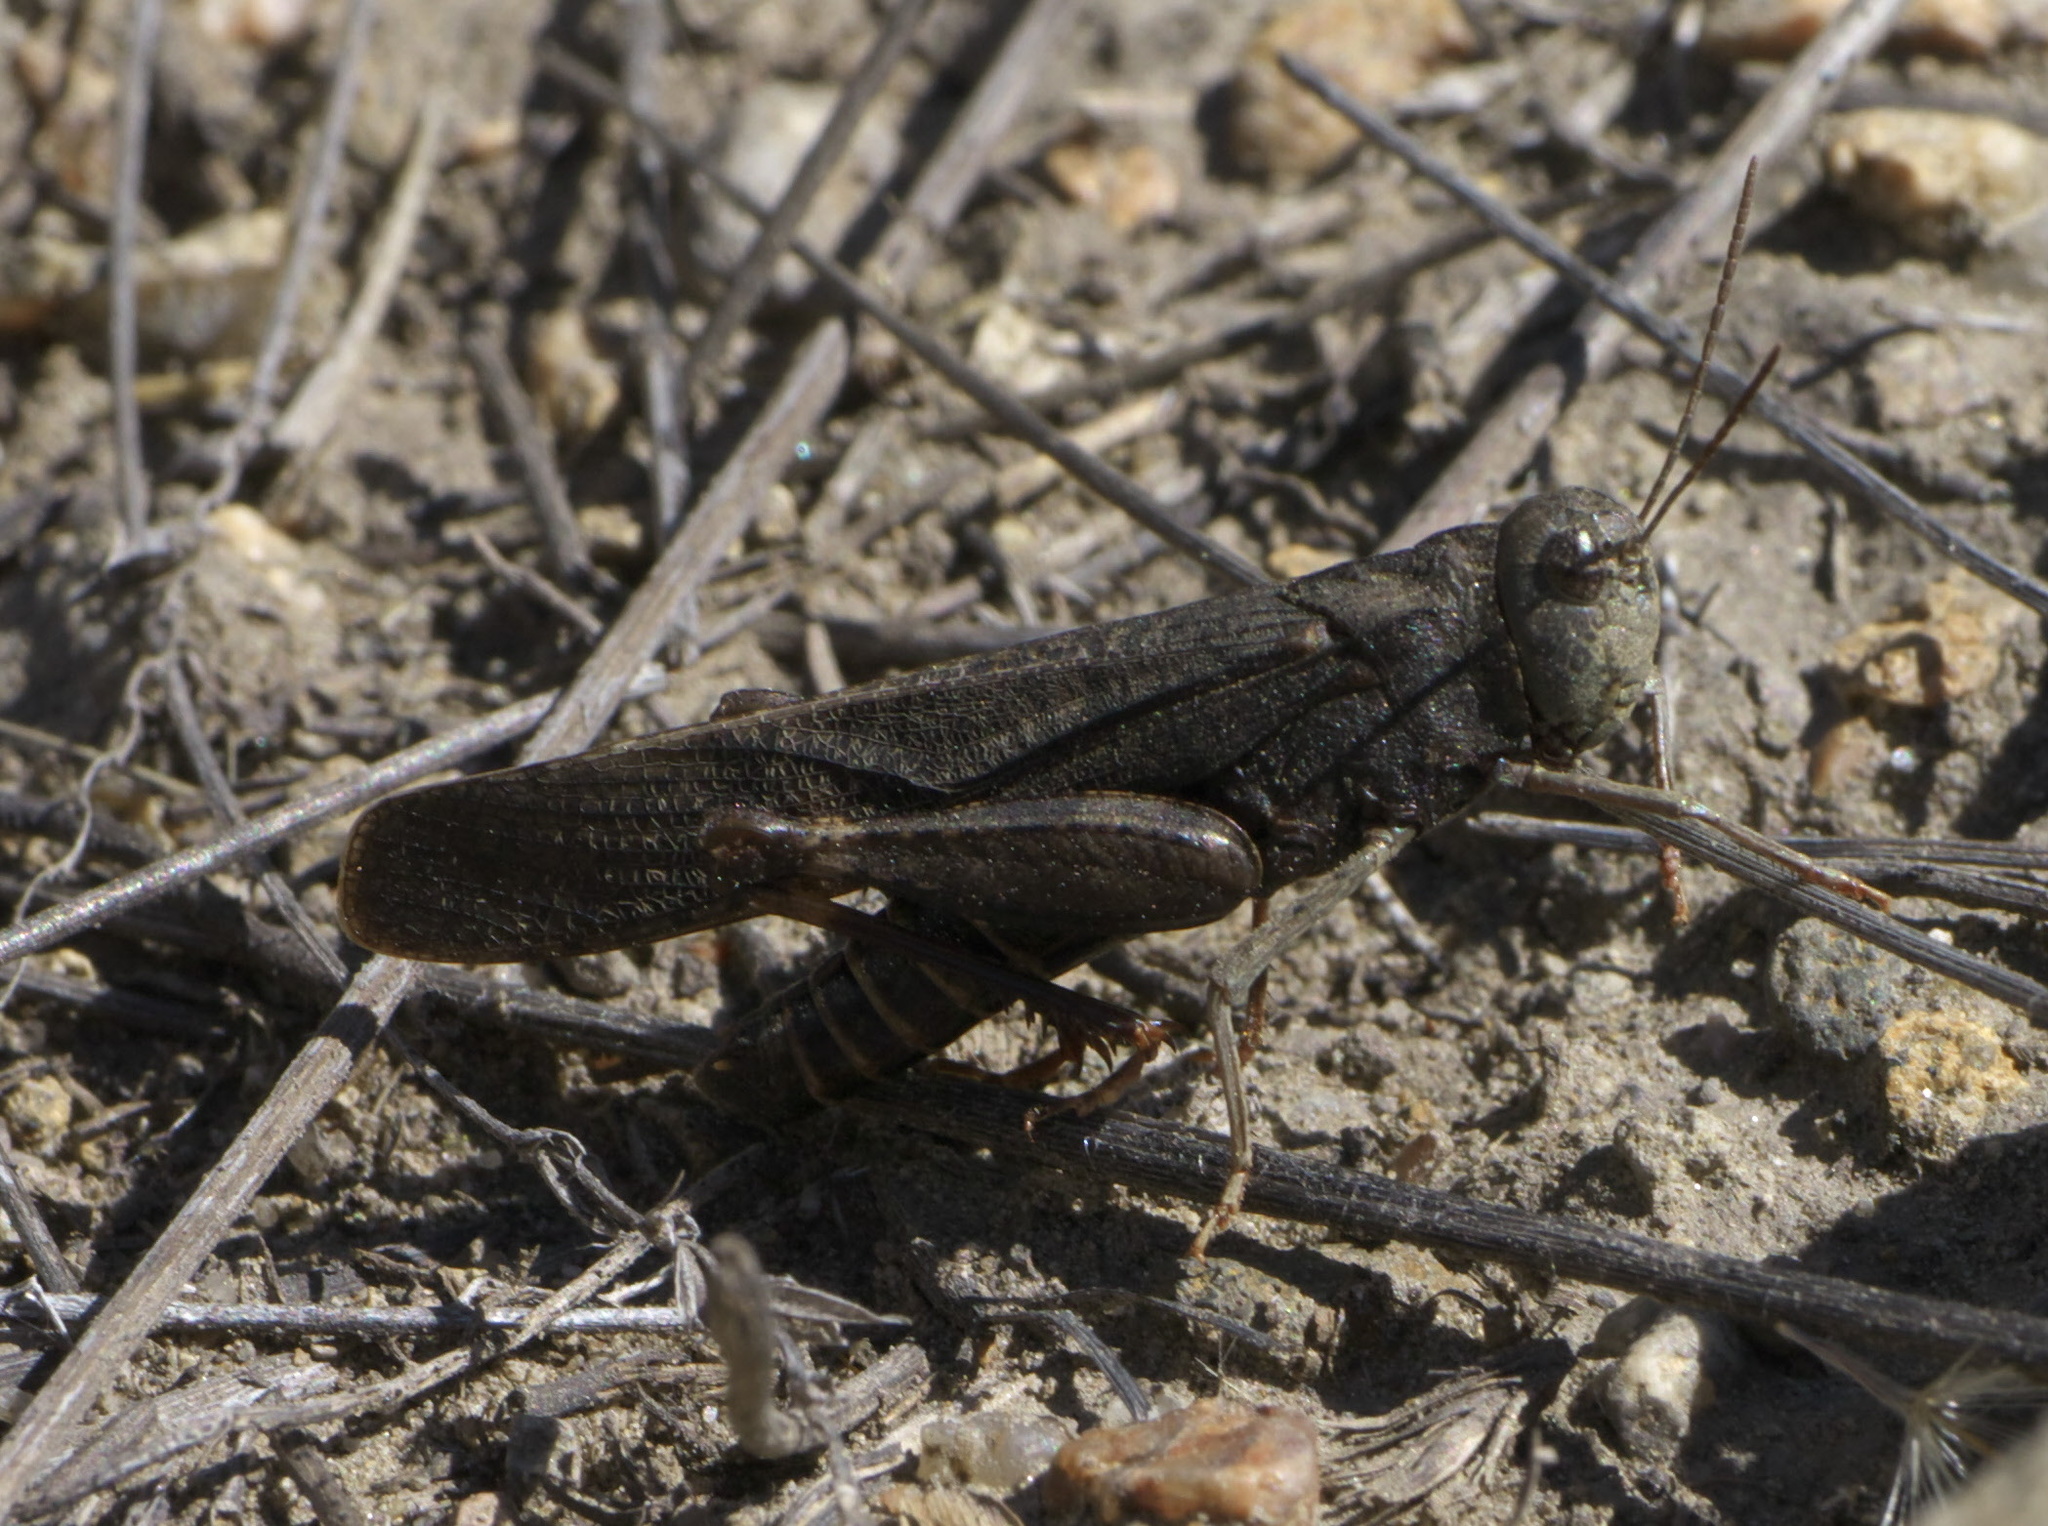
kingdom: Animalia
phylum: Arthropoda
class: Insecta
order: Orthoptera
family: Acrididae
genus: Arphia
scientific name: Arphia pseudo-nietana
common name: Red-winged grasshopper
